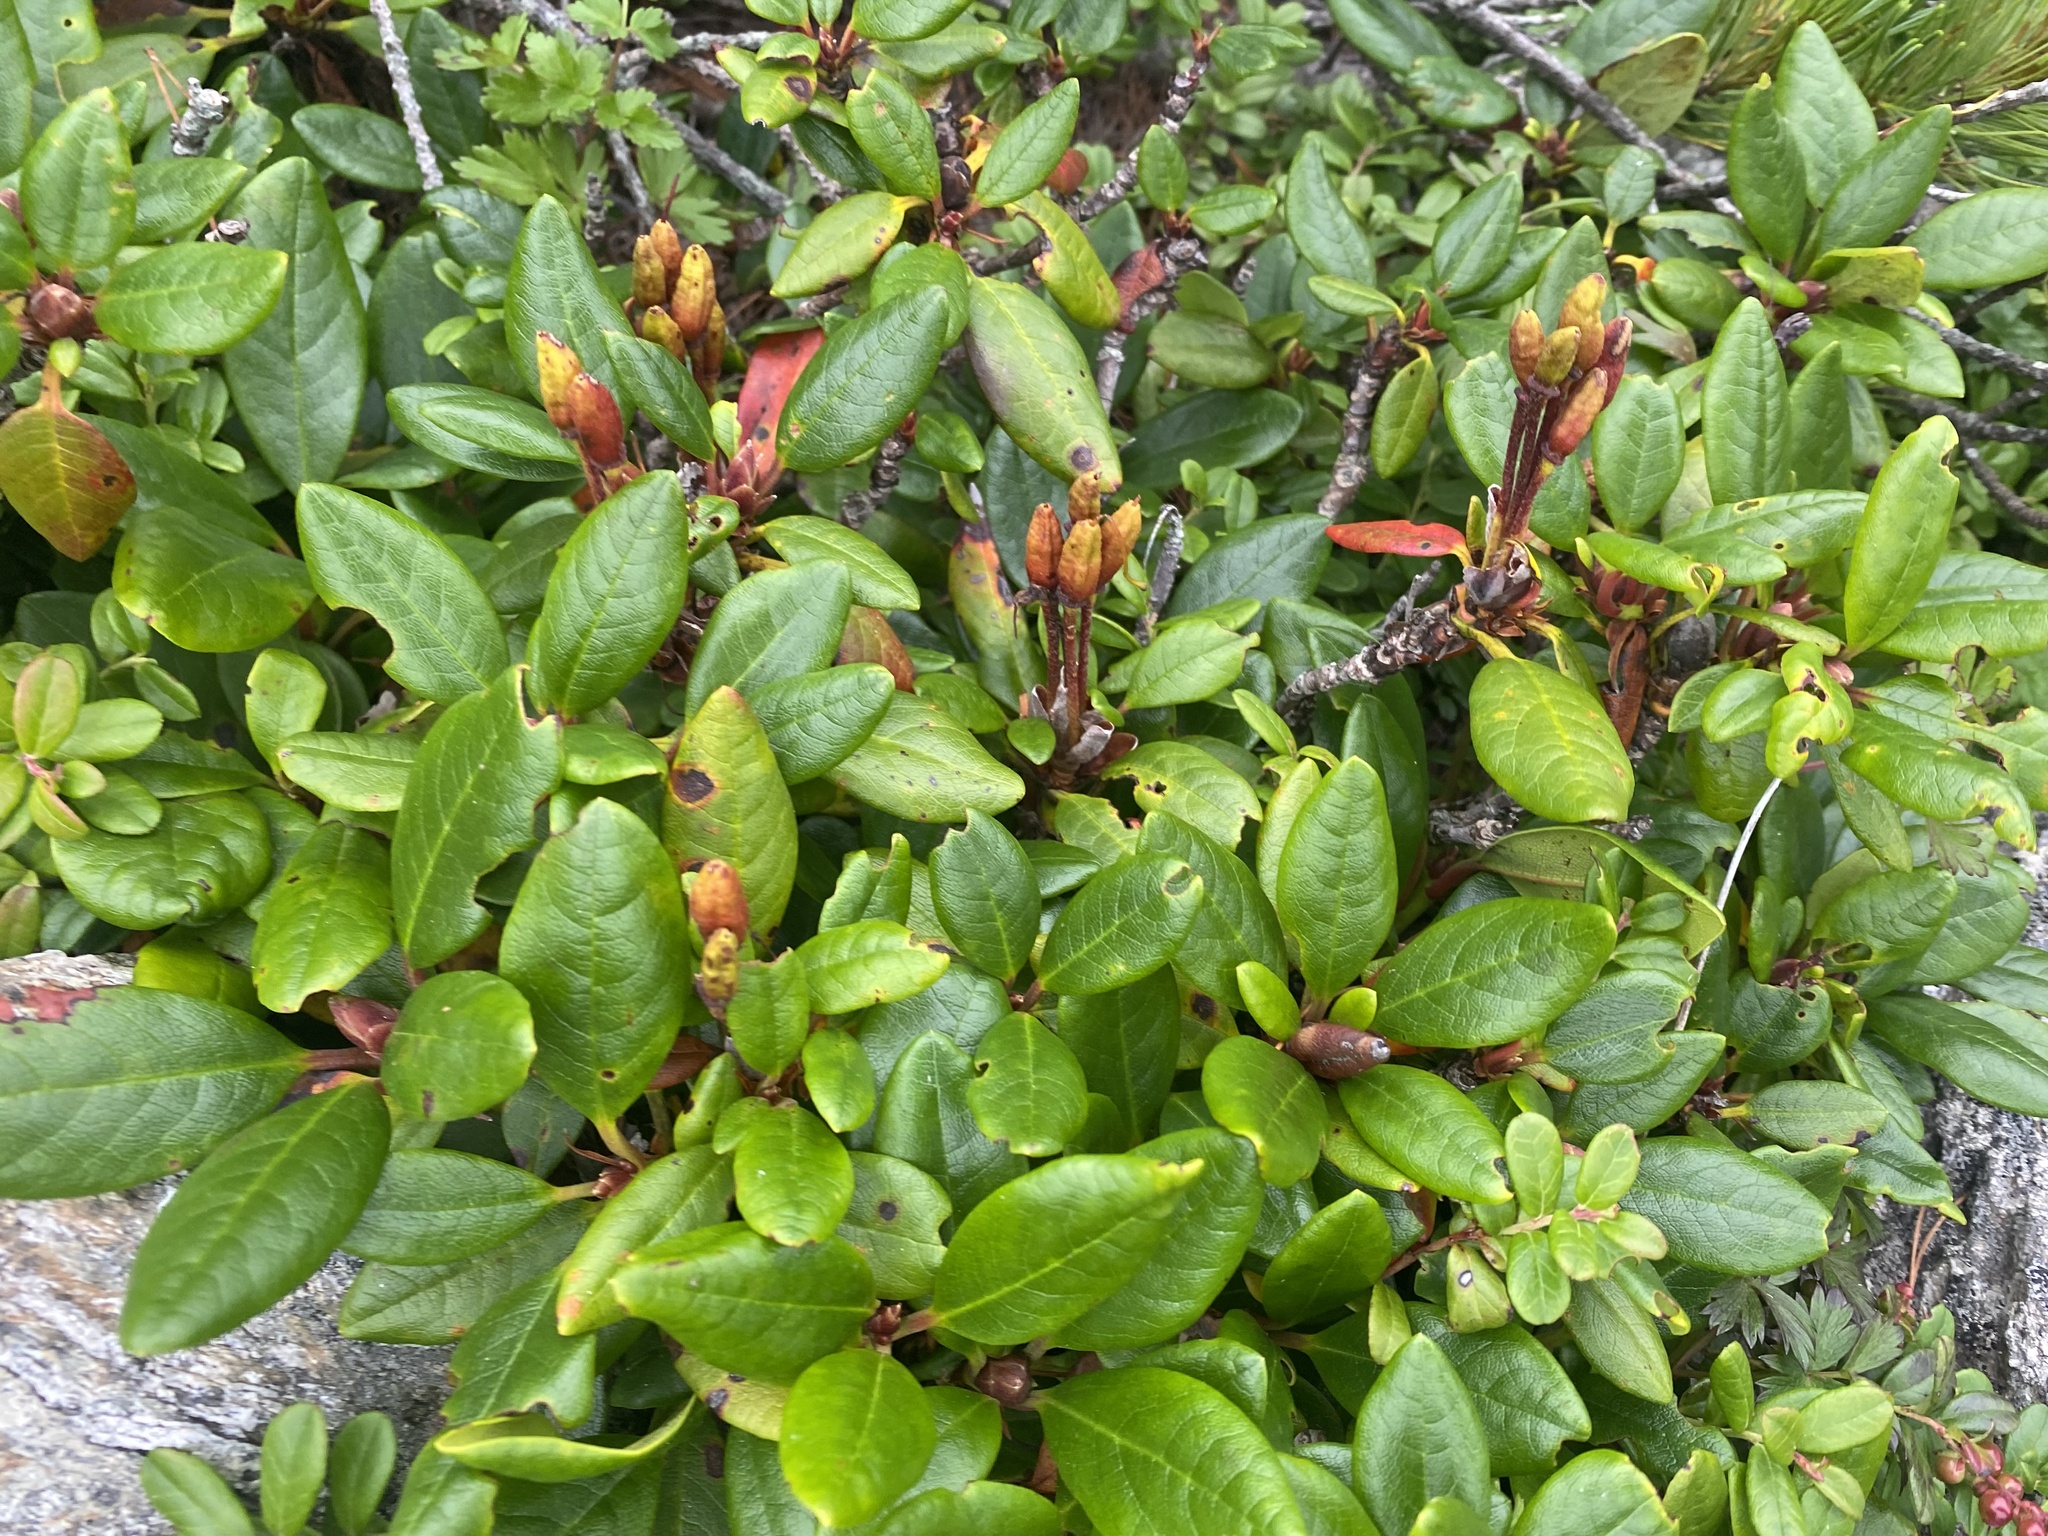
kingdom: Plantae
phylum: Tracheophyta
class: Magnoliopsida
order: Ericales
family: Ericaceae
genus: Rhododendron
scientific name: Rhododendron aureum
